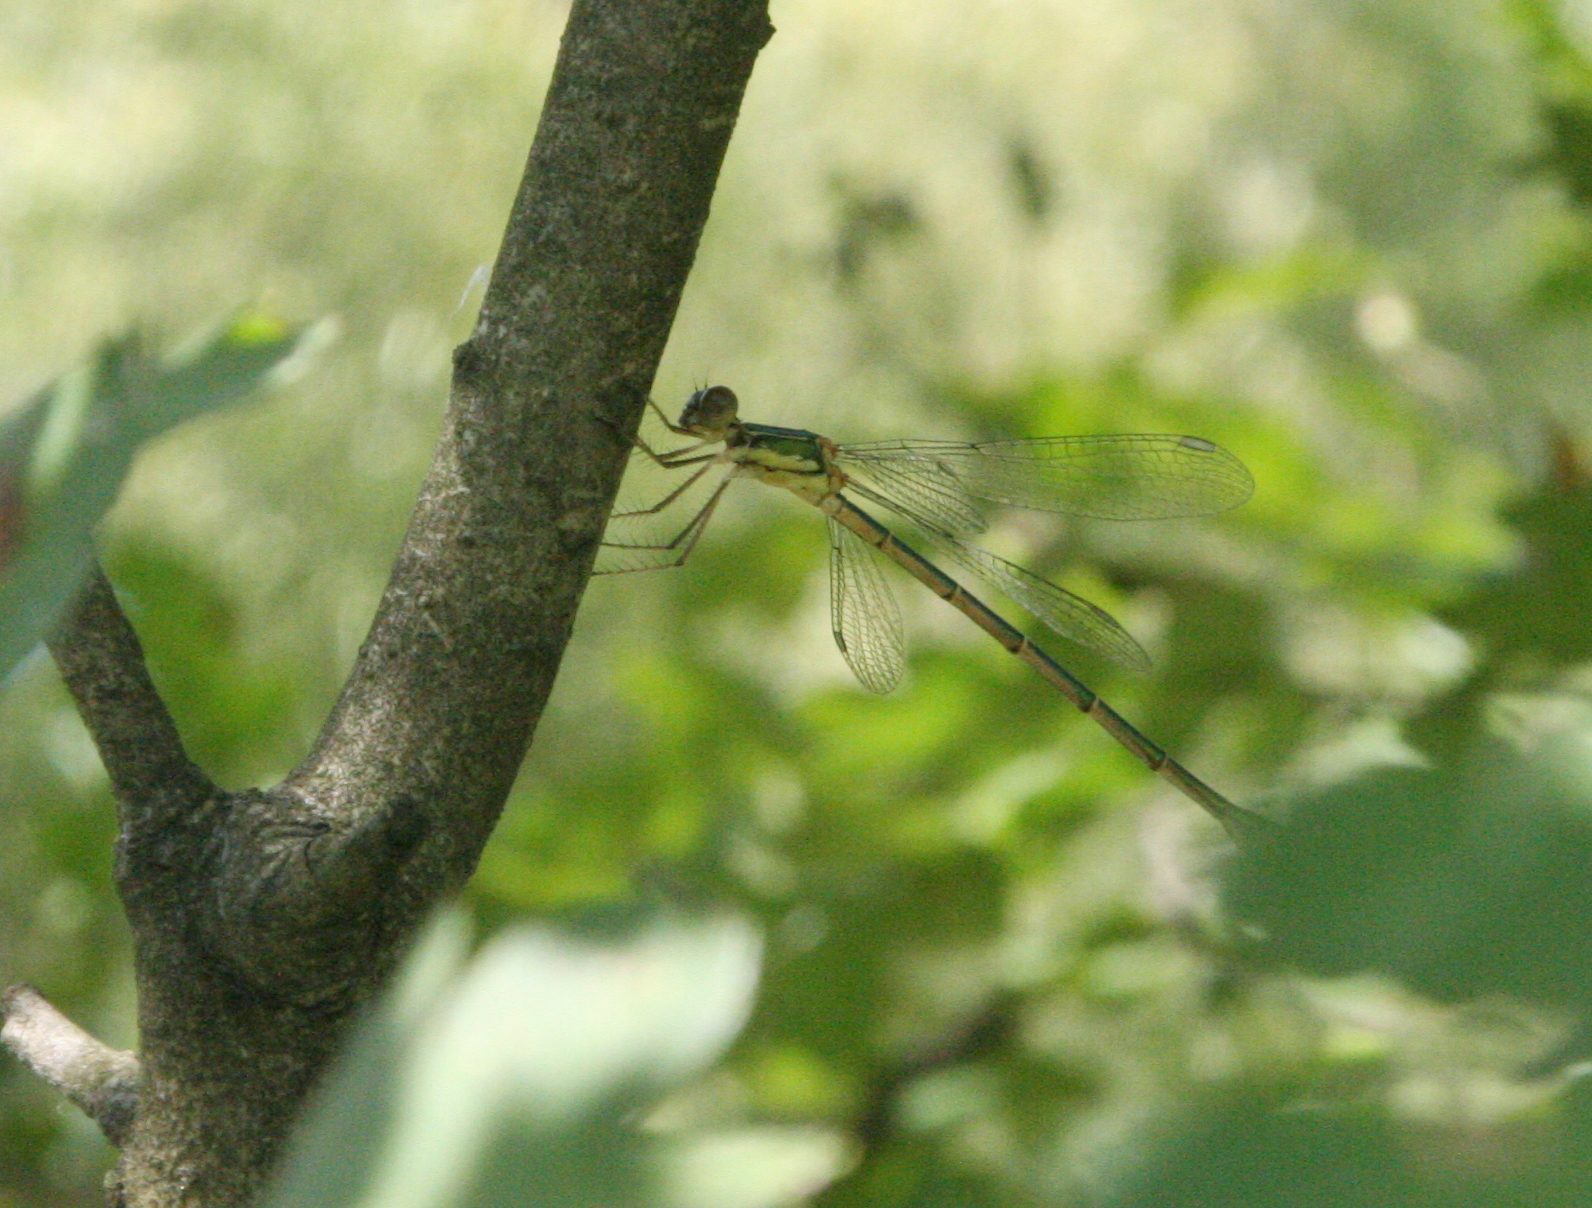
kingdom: Animalia
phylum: Arthropoda
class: Insecta
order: Odonata
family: Lestidae
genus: Chalcolestes
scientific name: Chalcolestes parvidens
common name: Eastern willow spreadwing
